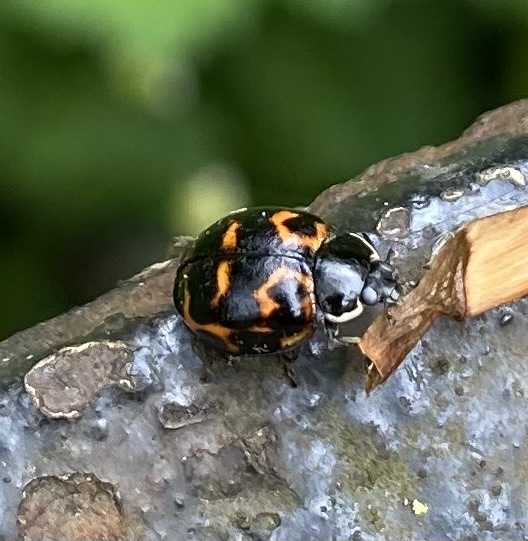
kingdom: Animalia
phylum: Arthropoda
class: Insecta
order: Coleoptera
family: Coccinellidae
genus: Harmonia
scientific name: Harmonia axyridis
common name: Harlequin ladybird
